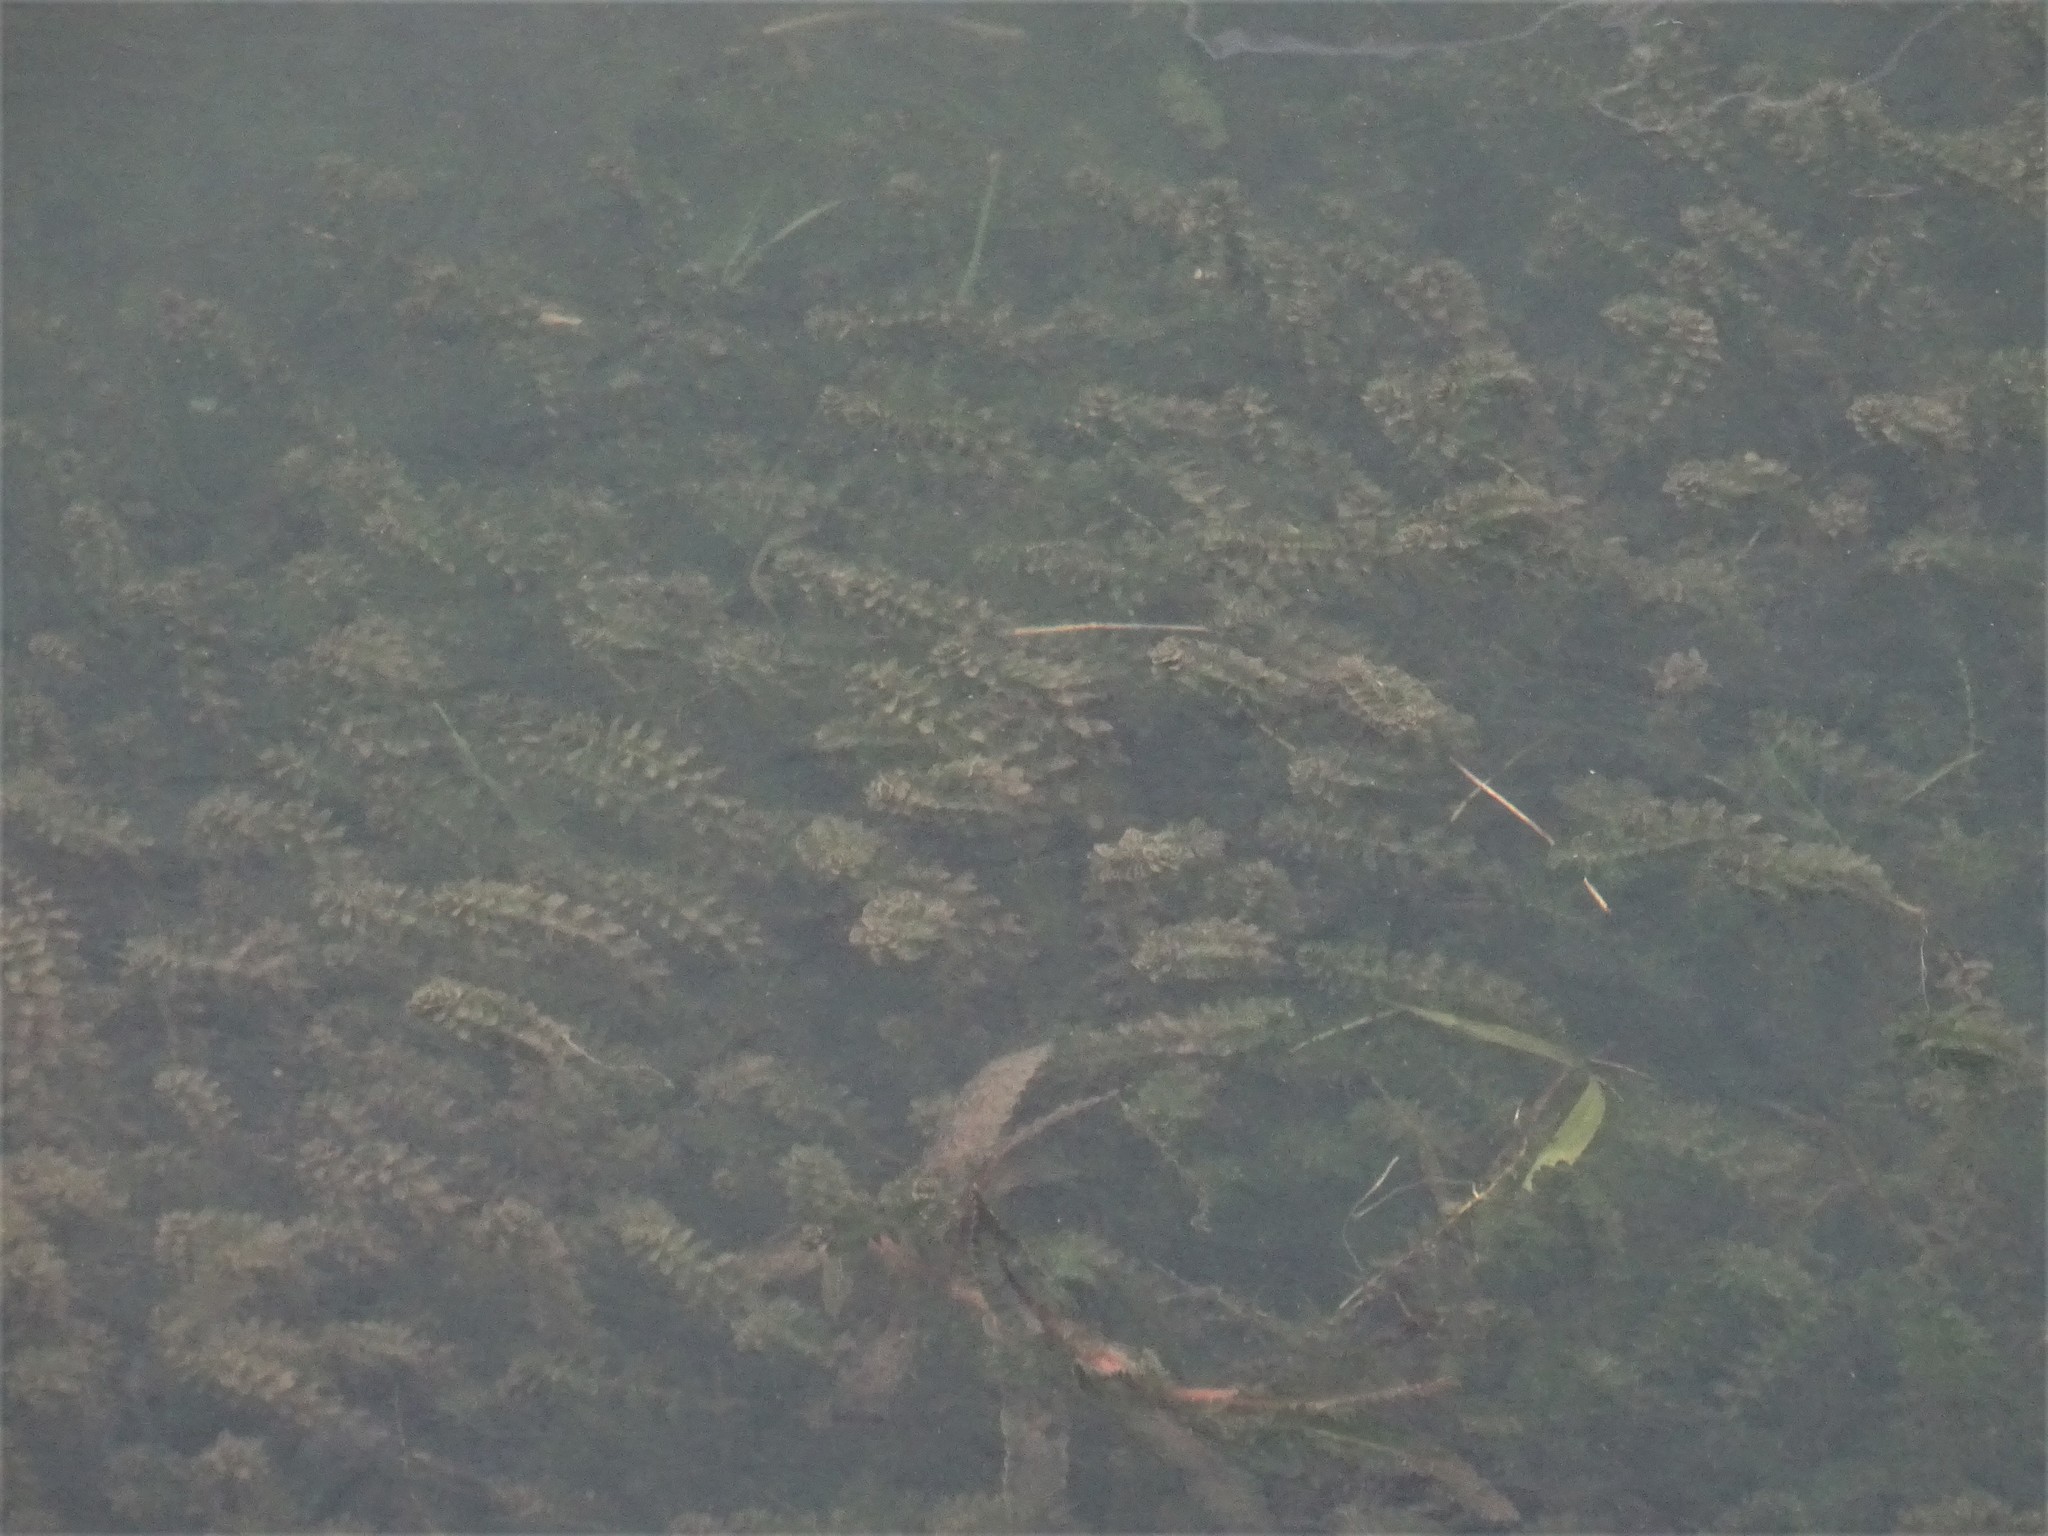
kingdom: Plantae
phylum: Tracheophyta
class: Liliopsida
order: Alismatales
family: Hydrocharitaceae
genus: Elodea
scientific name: Elodea canadensis
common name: Canadian waterweed
